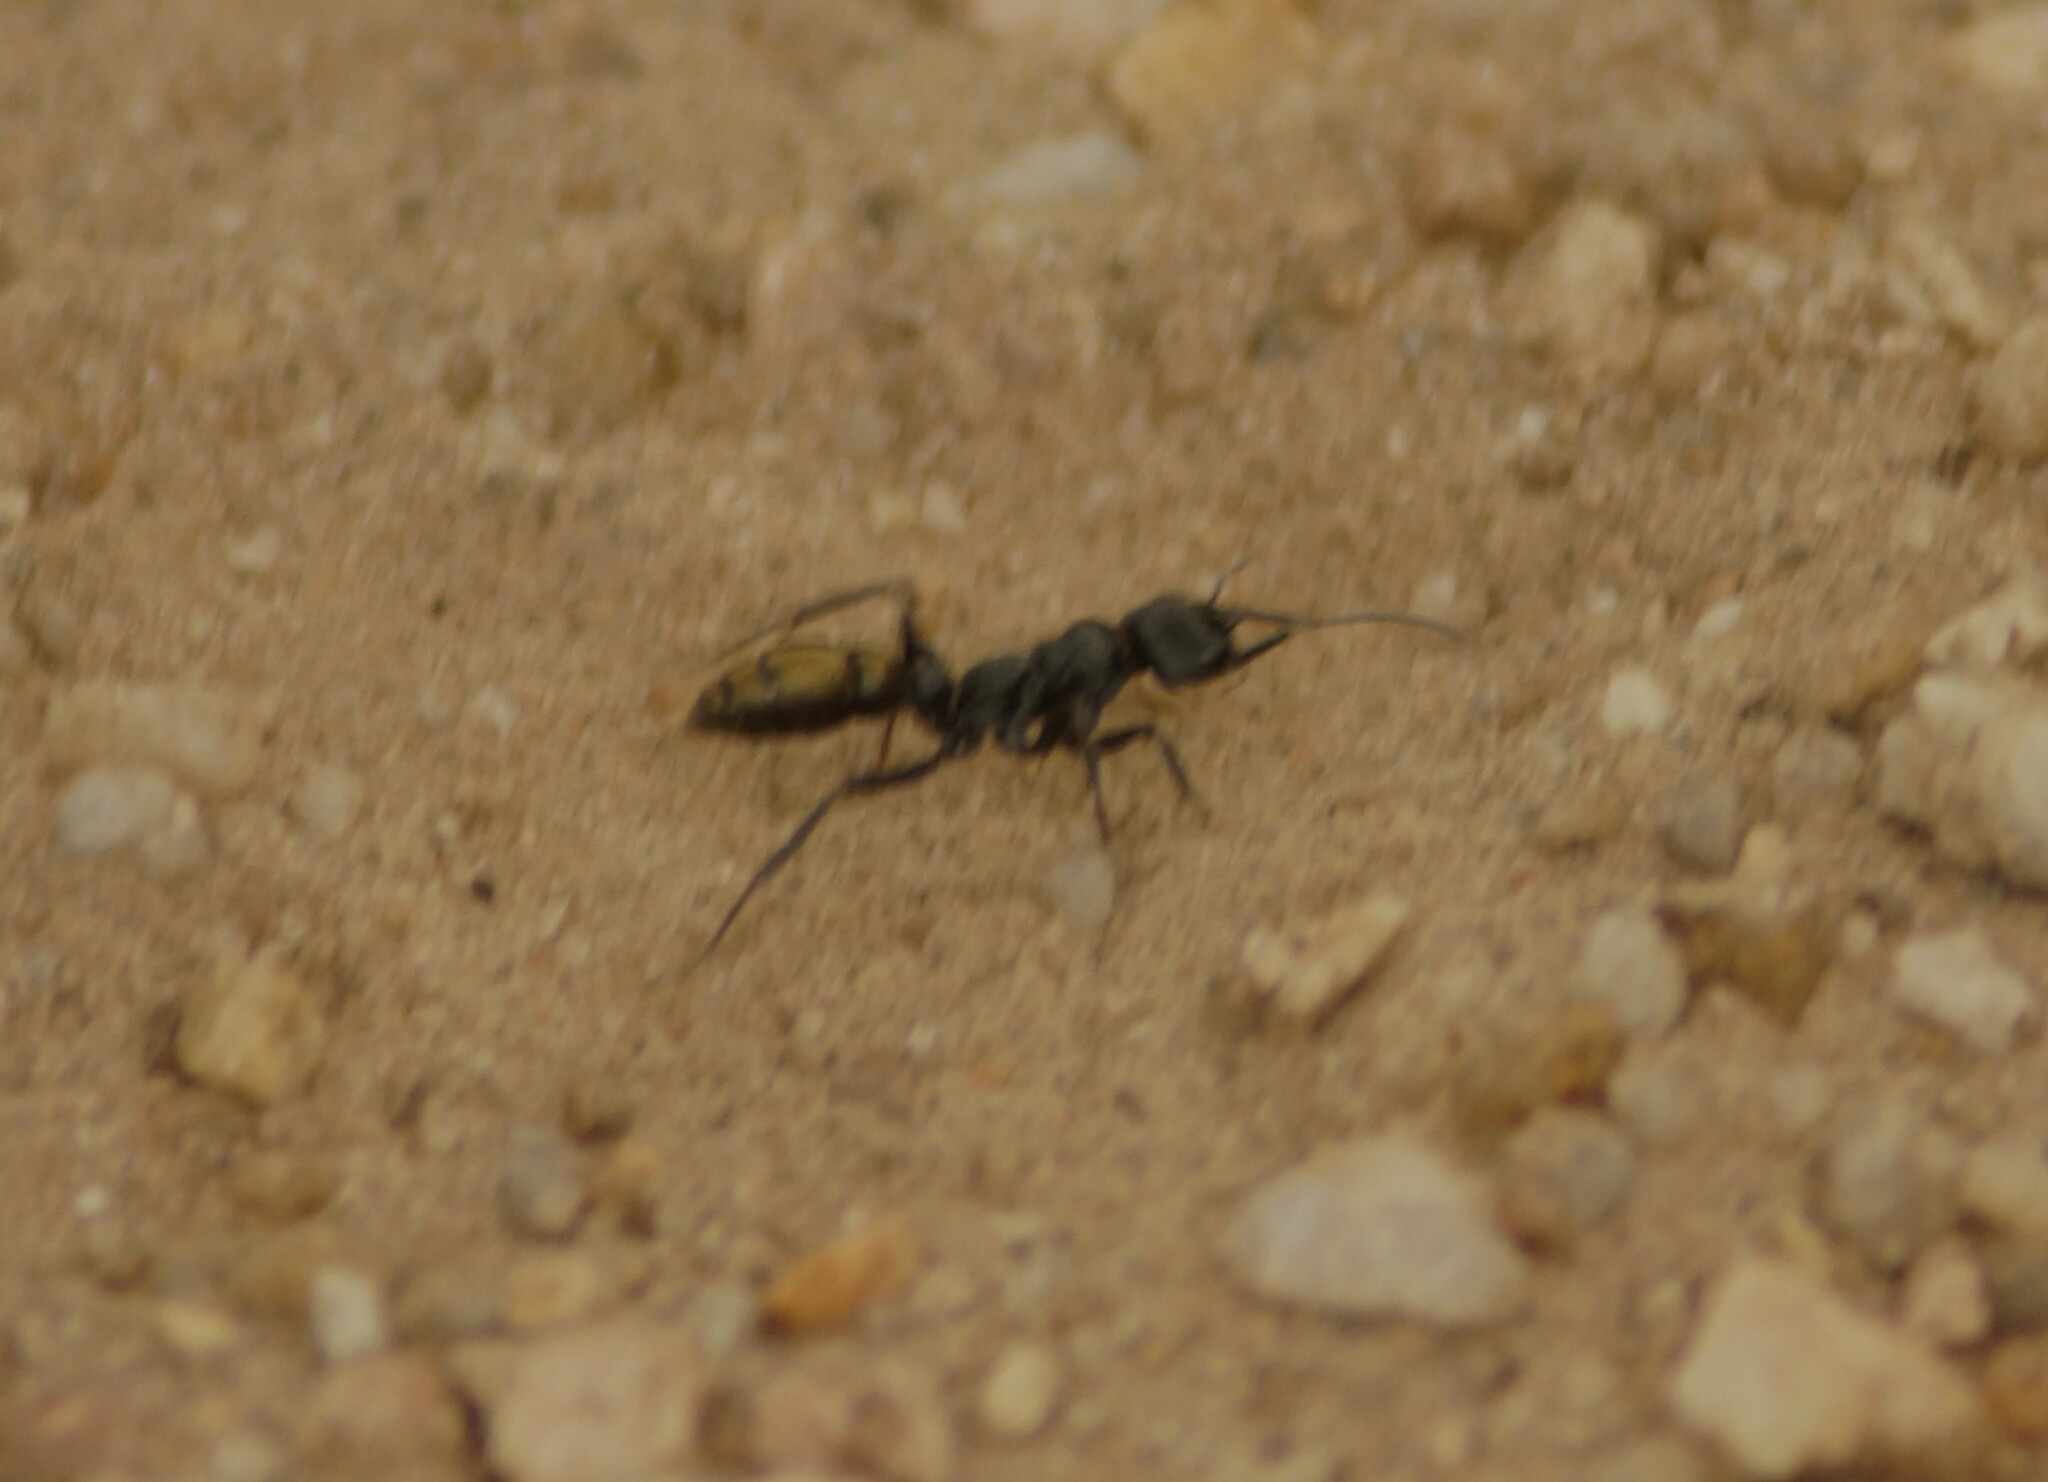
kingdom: Animalia
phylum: Arthropoda
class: Insecta
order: Hymenoptera
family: Formicidae
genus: Myrmecia
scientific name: Myrmecia piliventris
